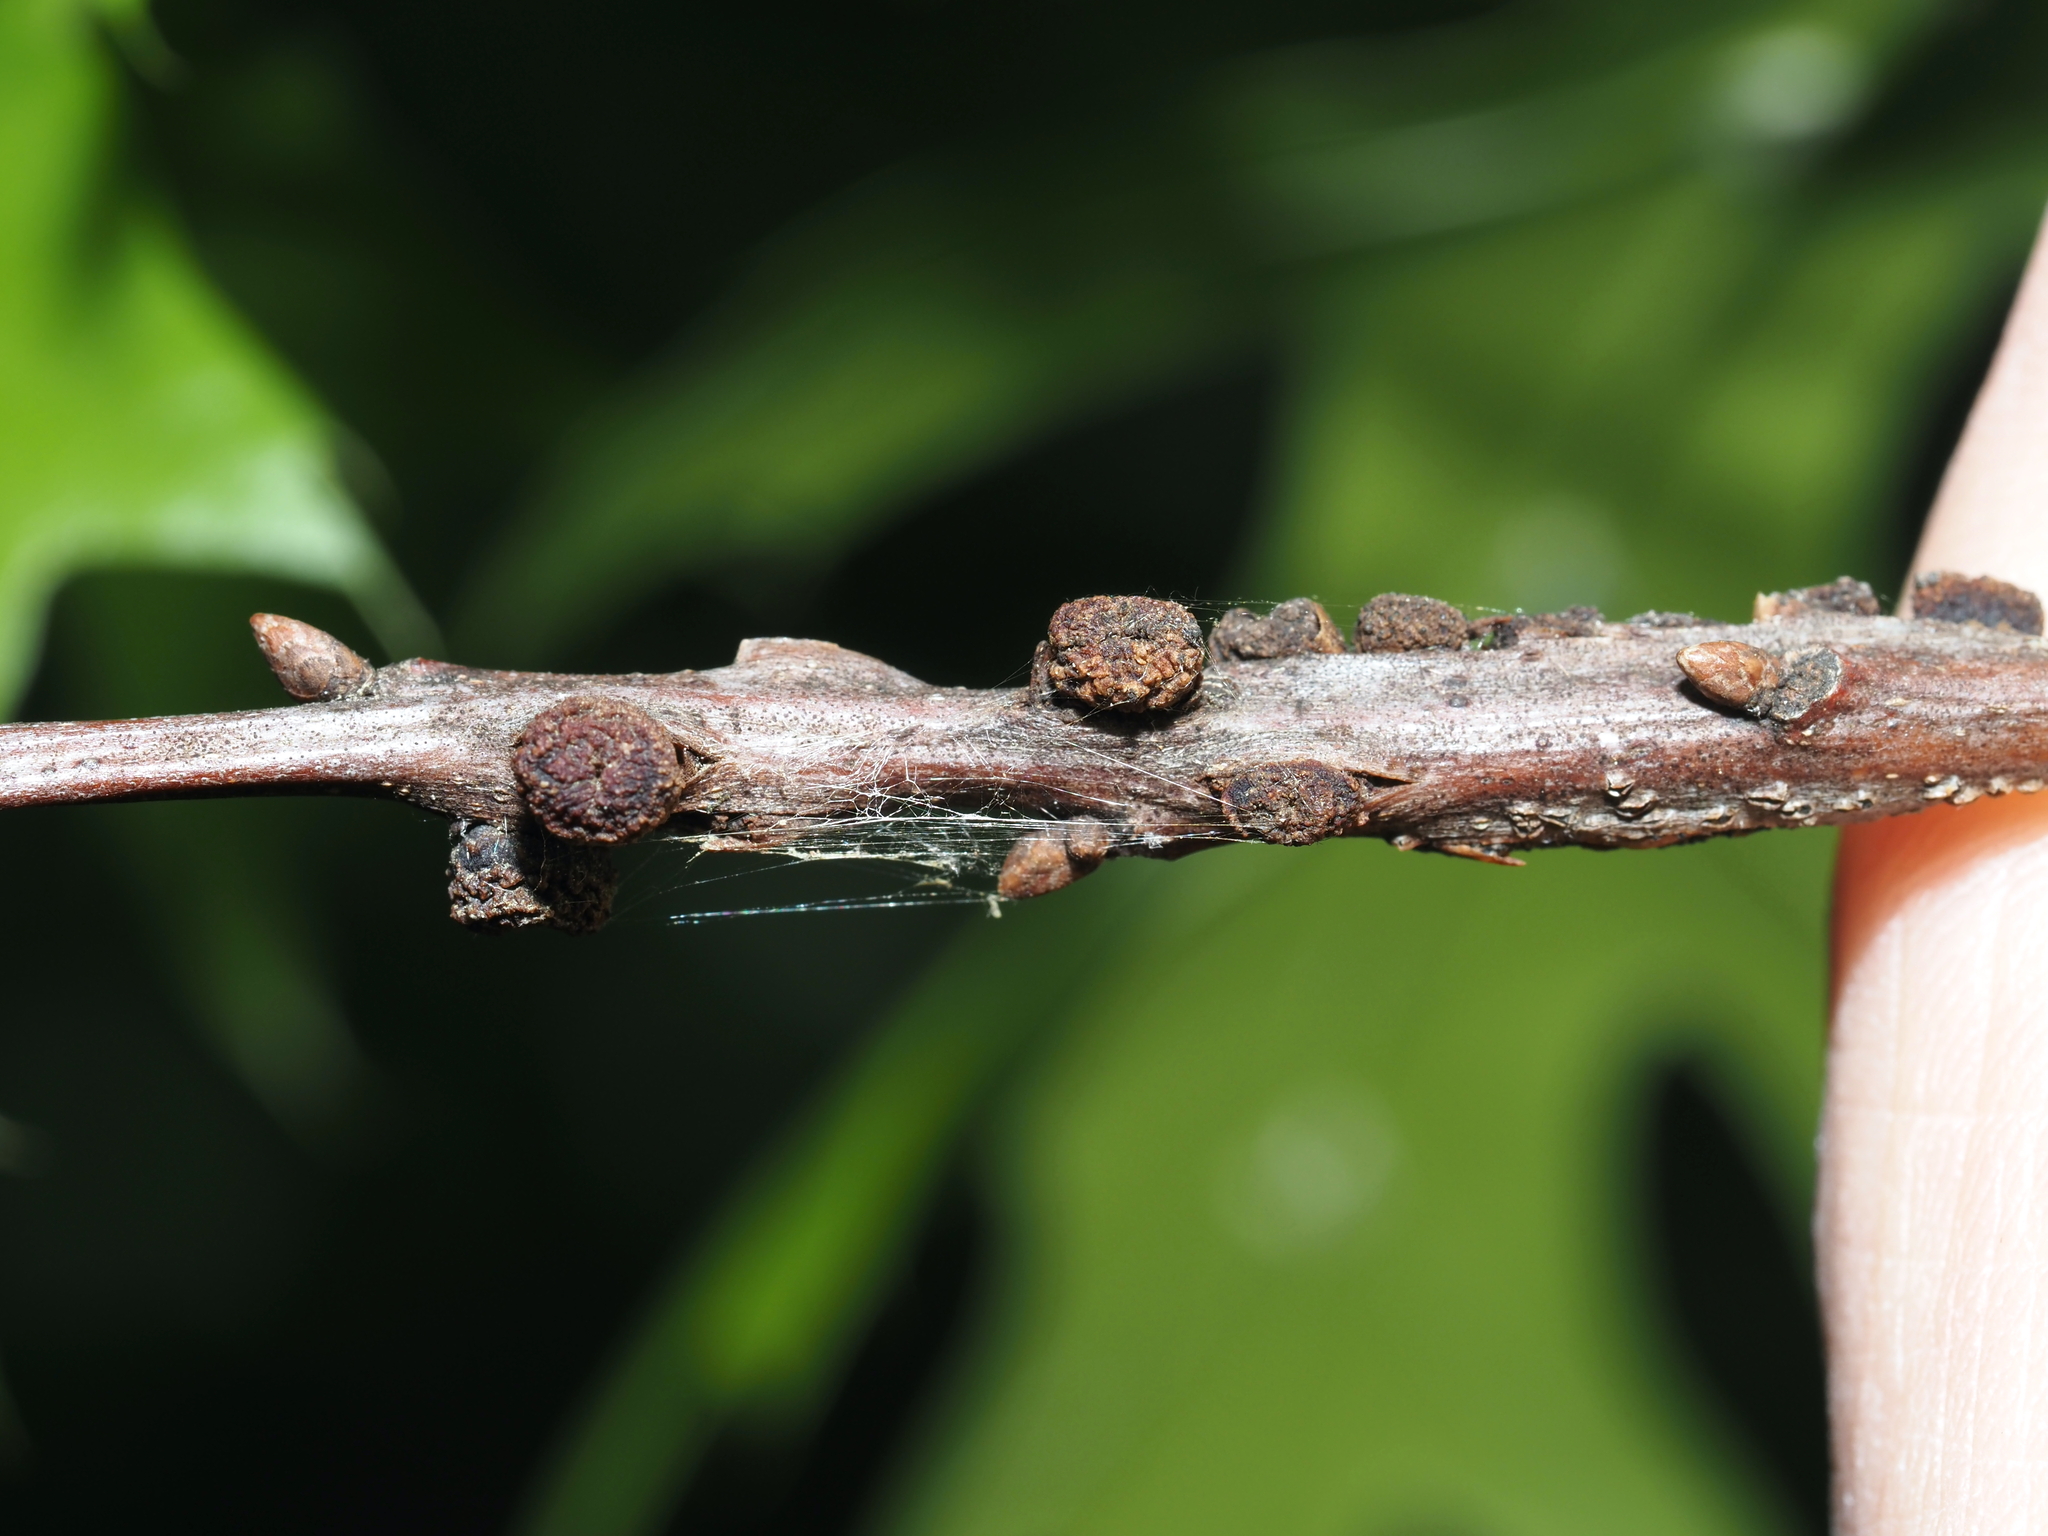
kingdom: Animalia
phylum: Arthropoda
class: Insecta
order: Hymenoptera
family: Cynipidae
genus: Kokkocynips
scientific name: Kokkocynips difficilis
